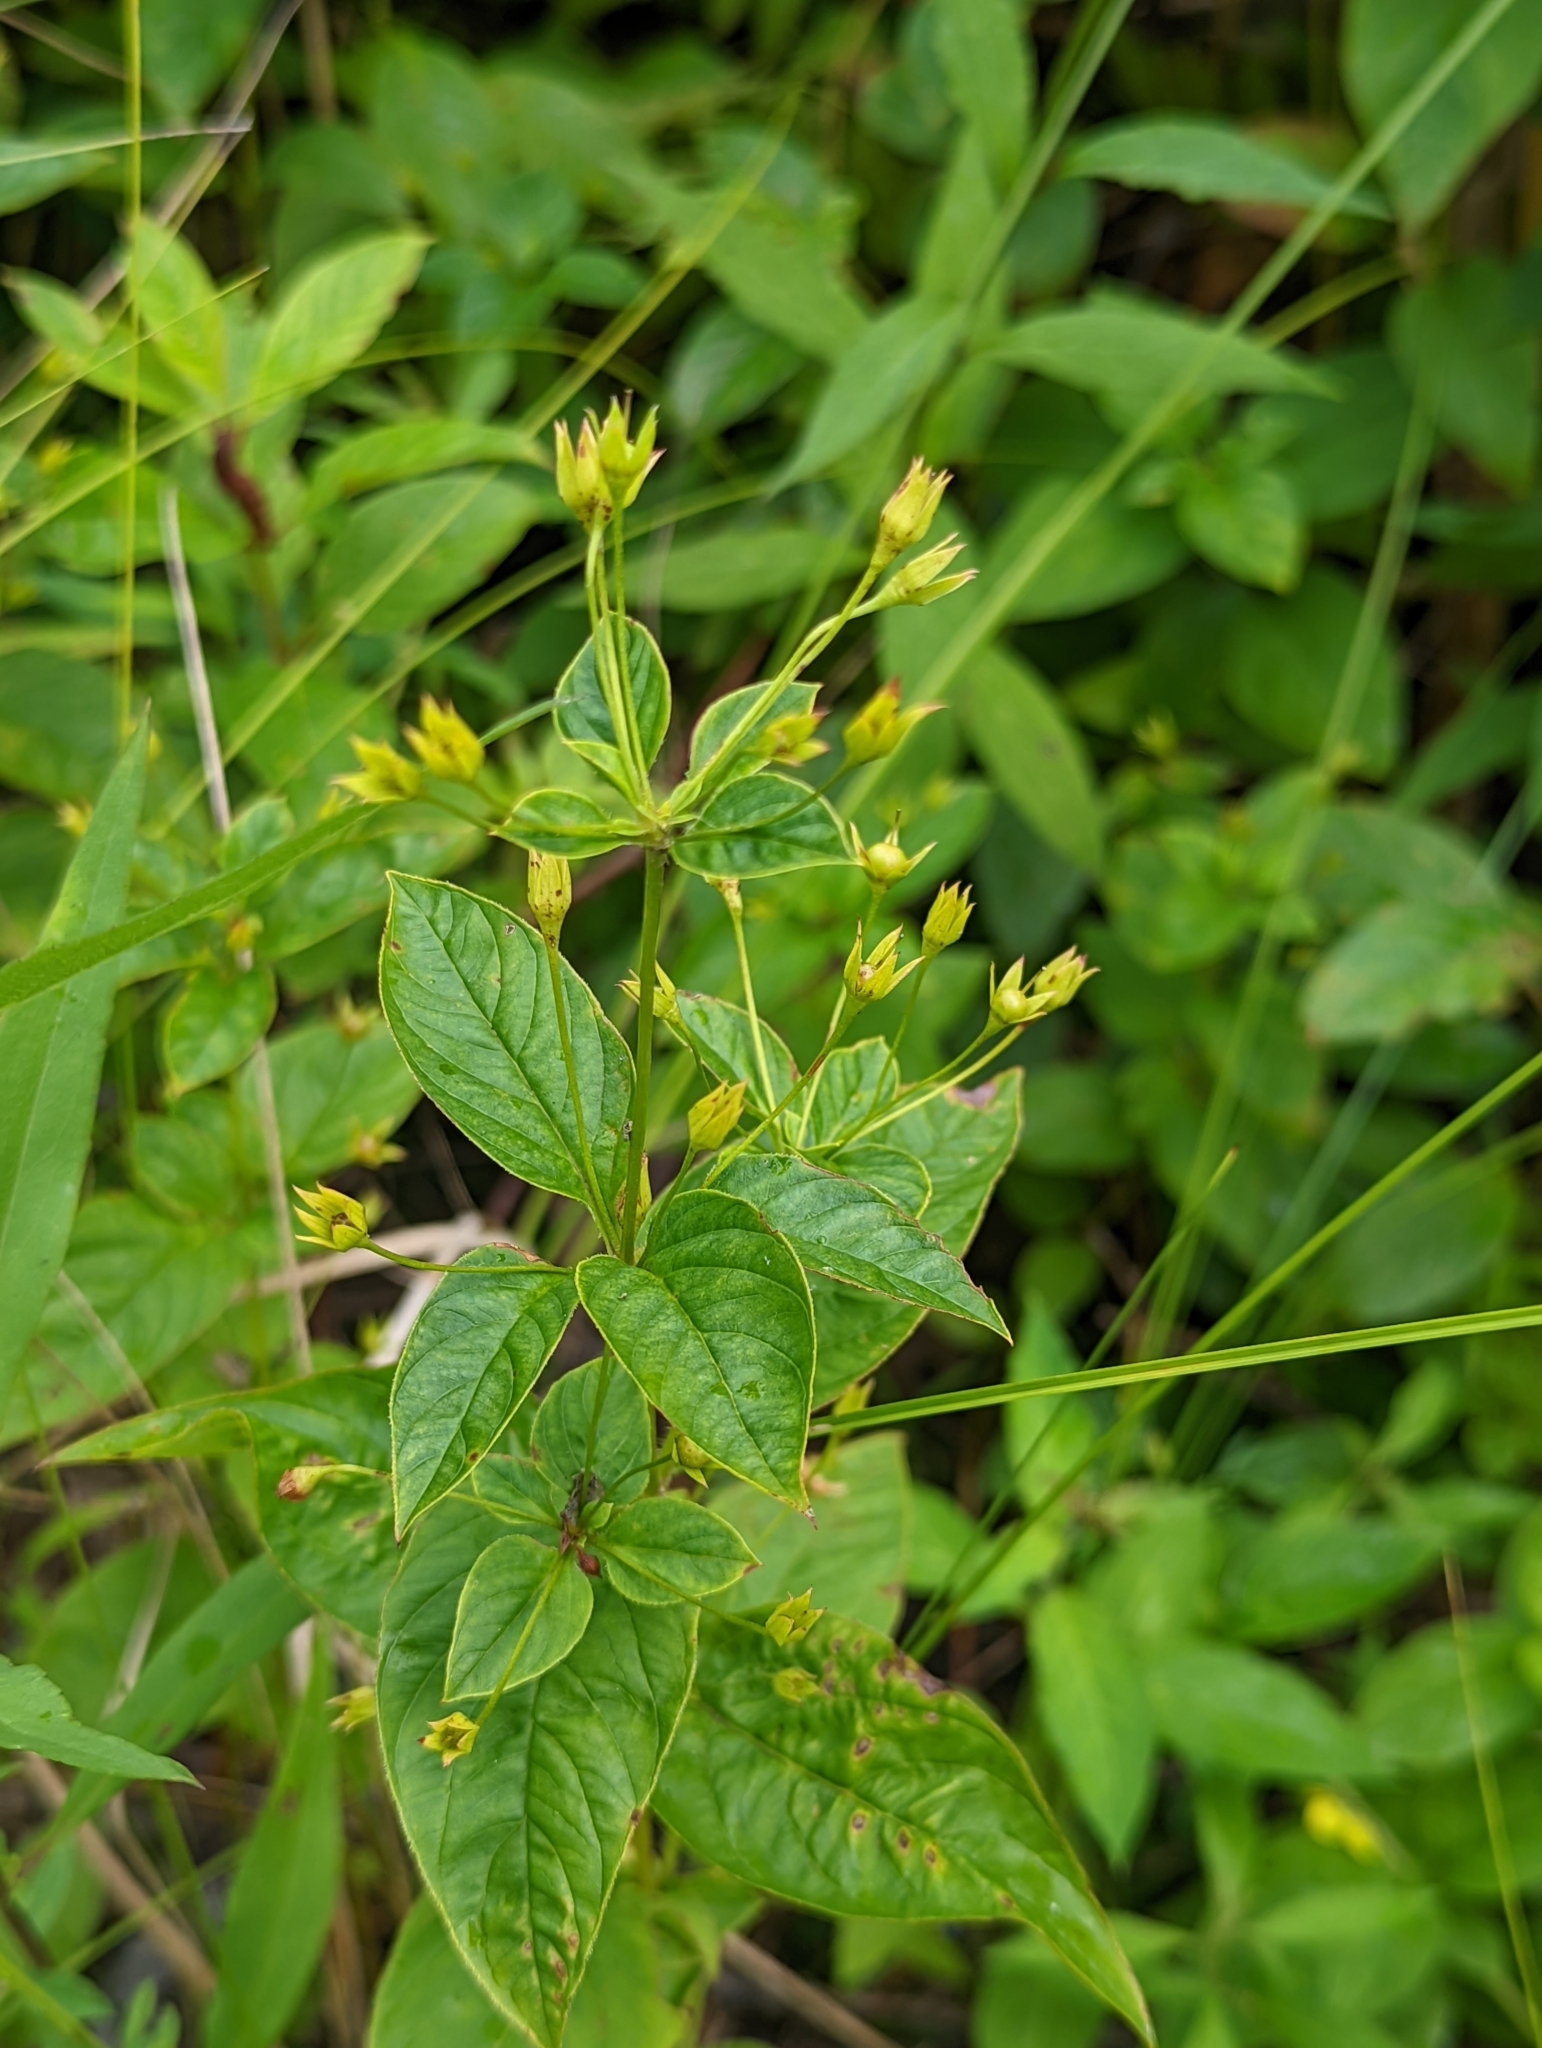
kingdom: Plantae
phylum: Tracheophyta
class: Magnoliopsida
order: Ericales
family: Primulaceae
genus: Lysimachia
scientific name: Lysimachia ciliata
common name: Fringed loosestrife
